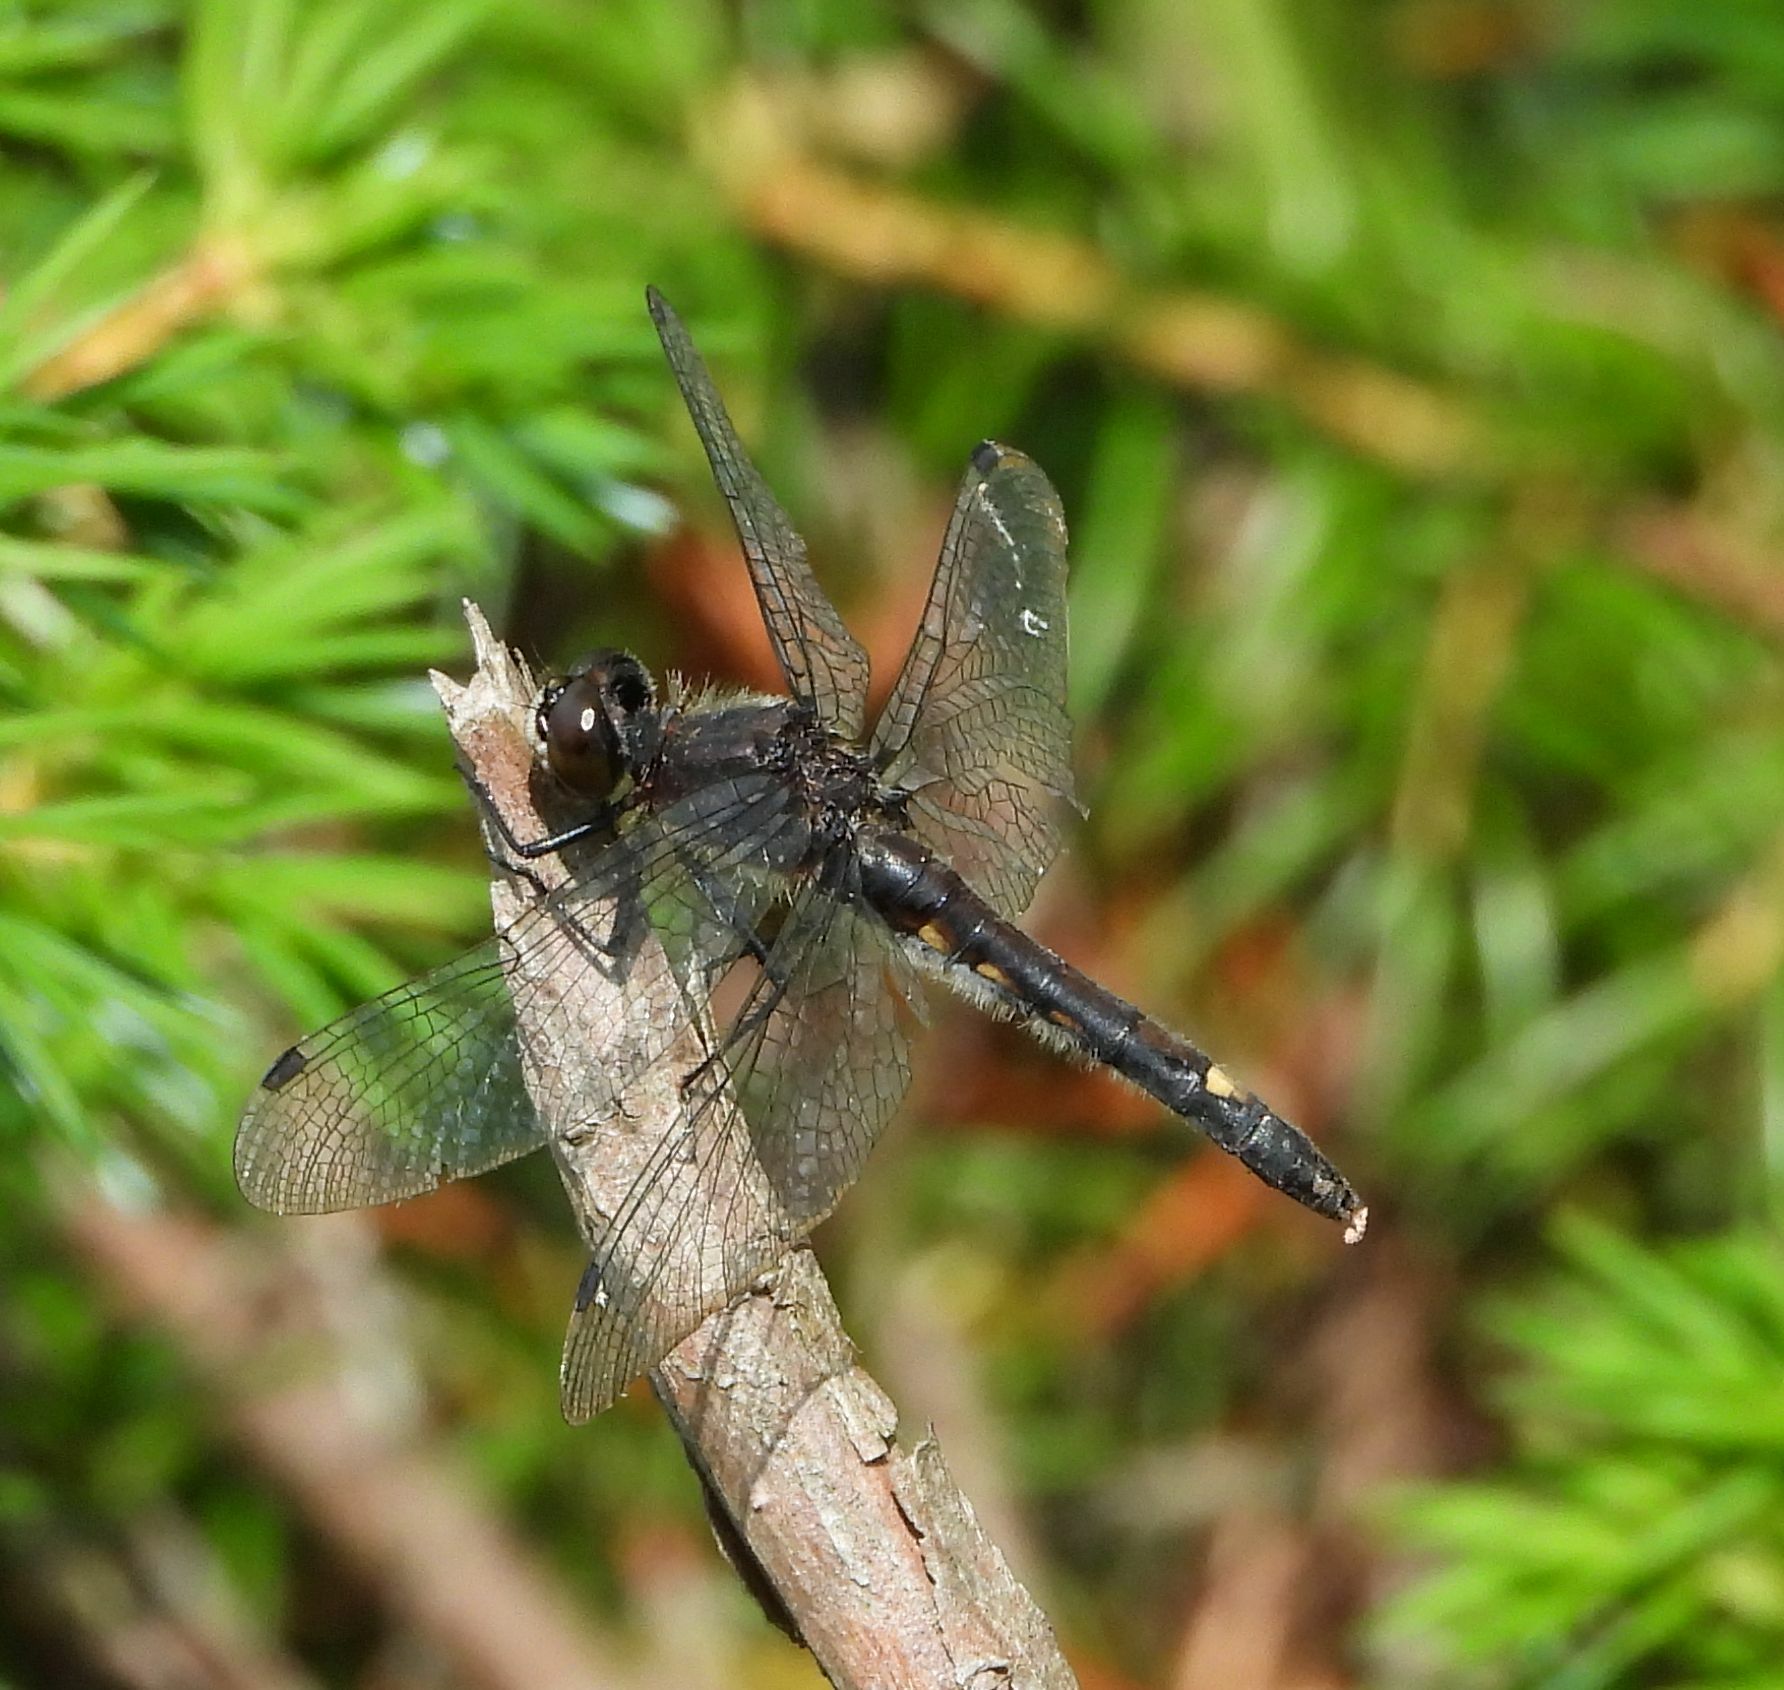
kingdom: Animalia
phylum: Arthropoda
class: Insecta
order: Odonata
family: Libellulidae
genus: Leucorrhinia
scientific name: Leucorrhinia intacta
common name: Dot-tailed whiteface
